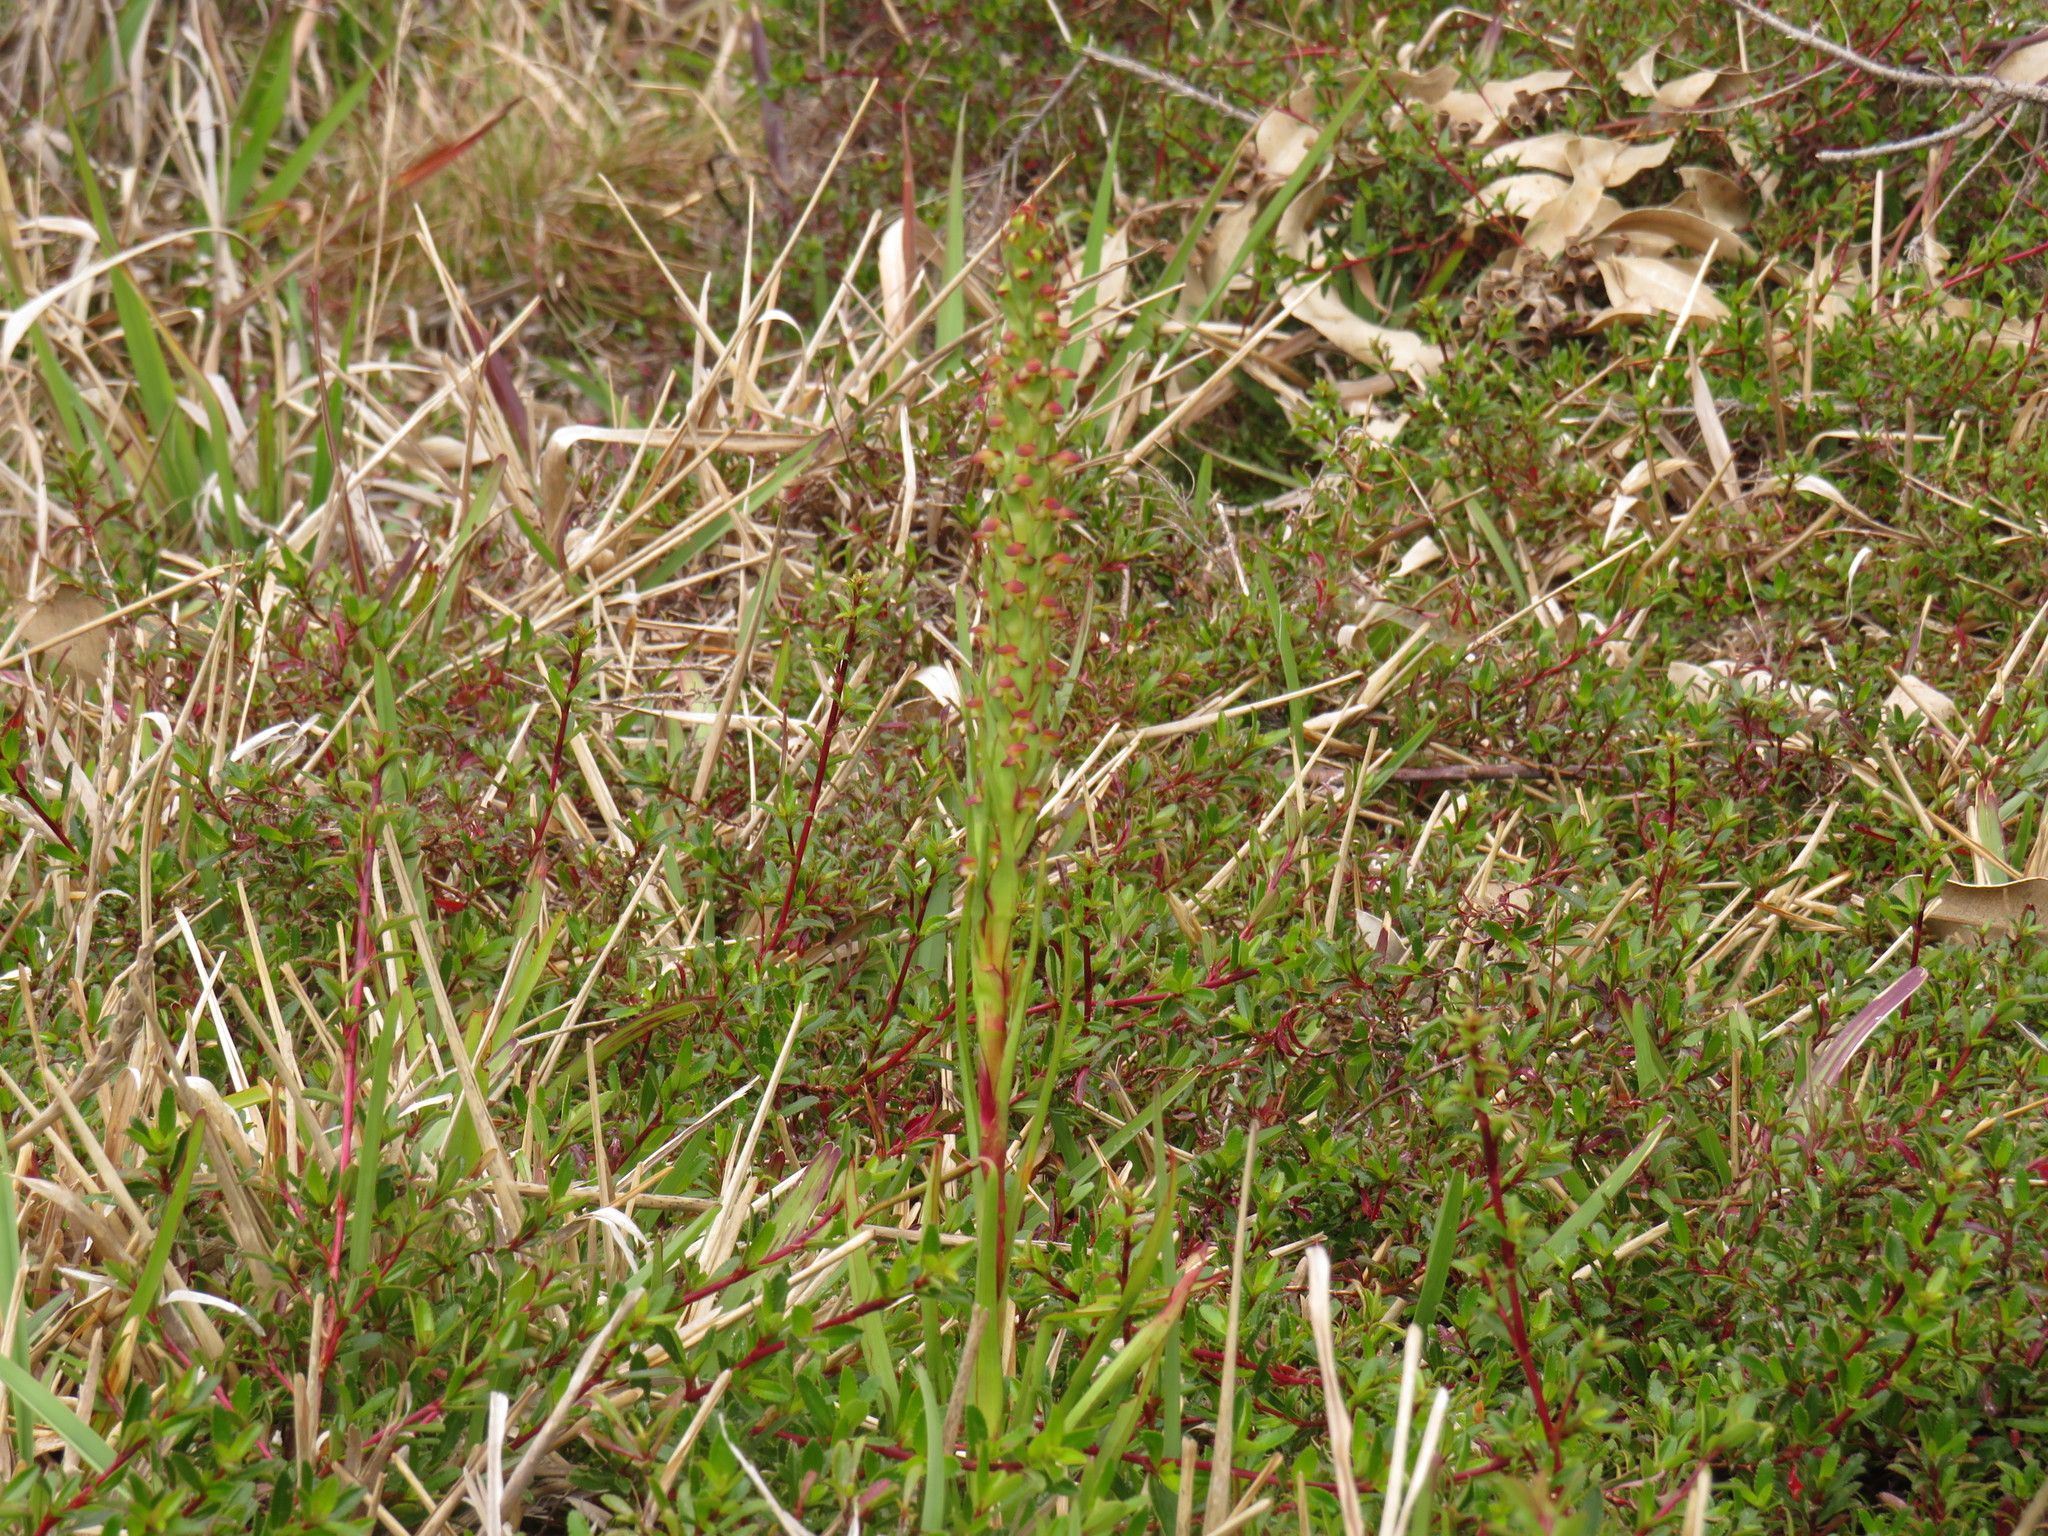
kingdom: Plantae
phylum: Tracheophyta
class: Liliopsida
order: Asparagales
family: Orchidaceae
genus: Disa
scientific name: Disa bracteata
